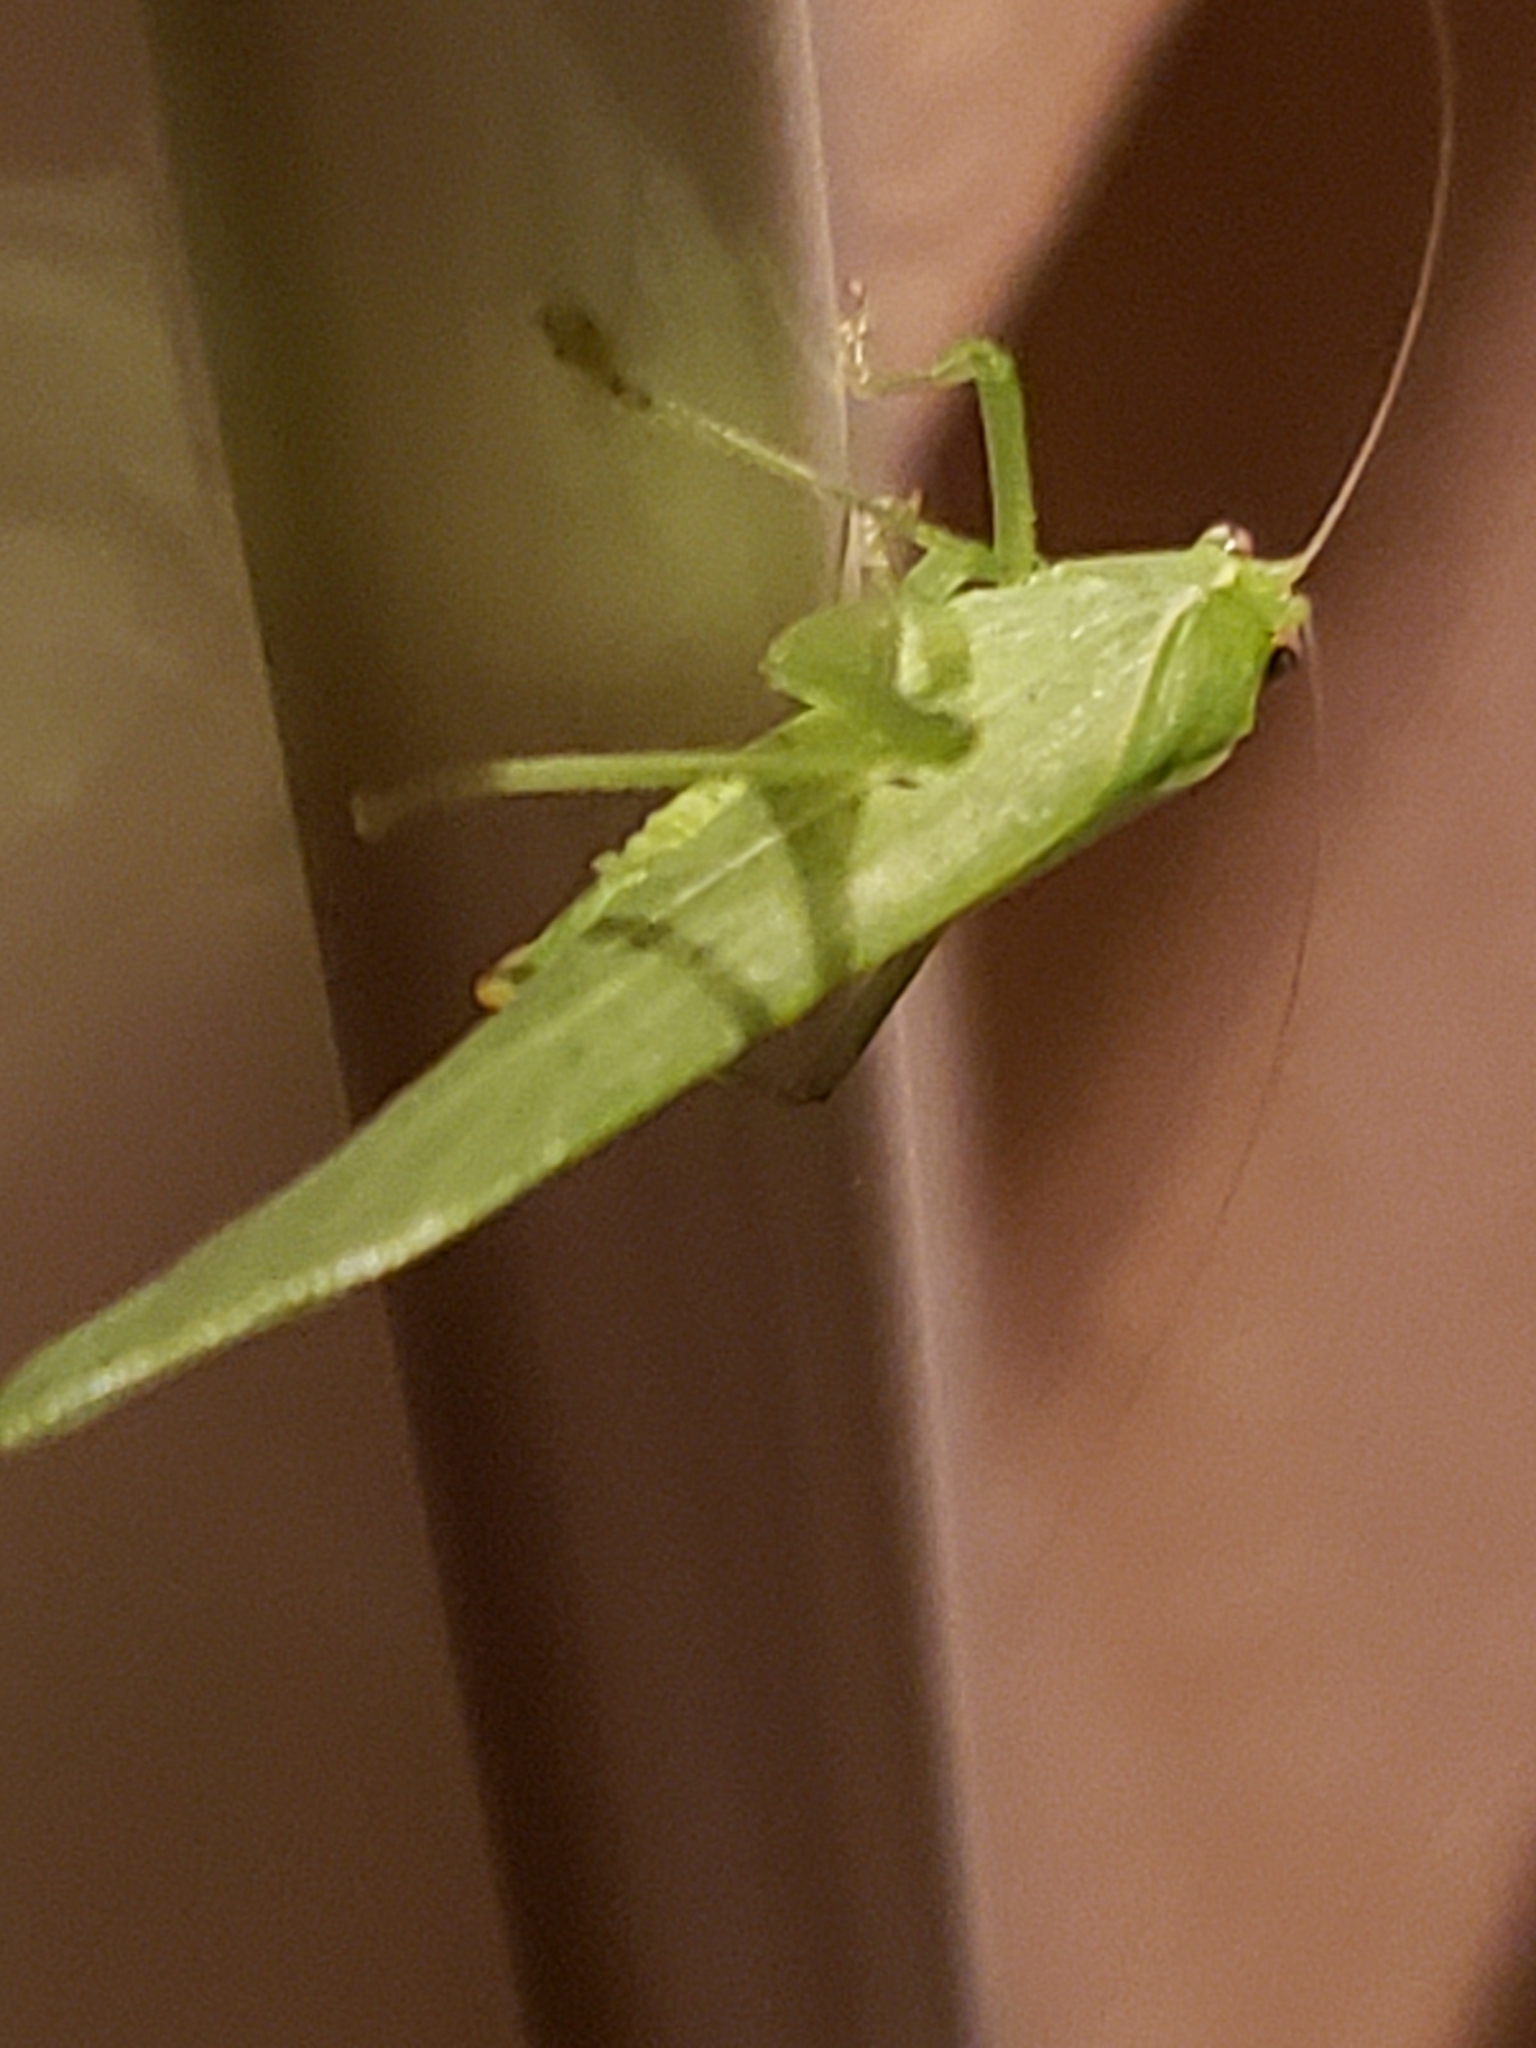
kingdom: Animalia
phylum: Arthropoda
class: Insecta
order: Orthoptera
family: Tettigoniidae
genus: Montezumina
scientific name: Montezumina modesta
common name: Modest katydid
